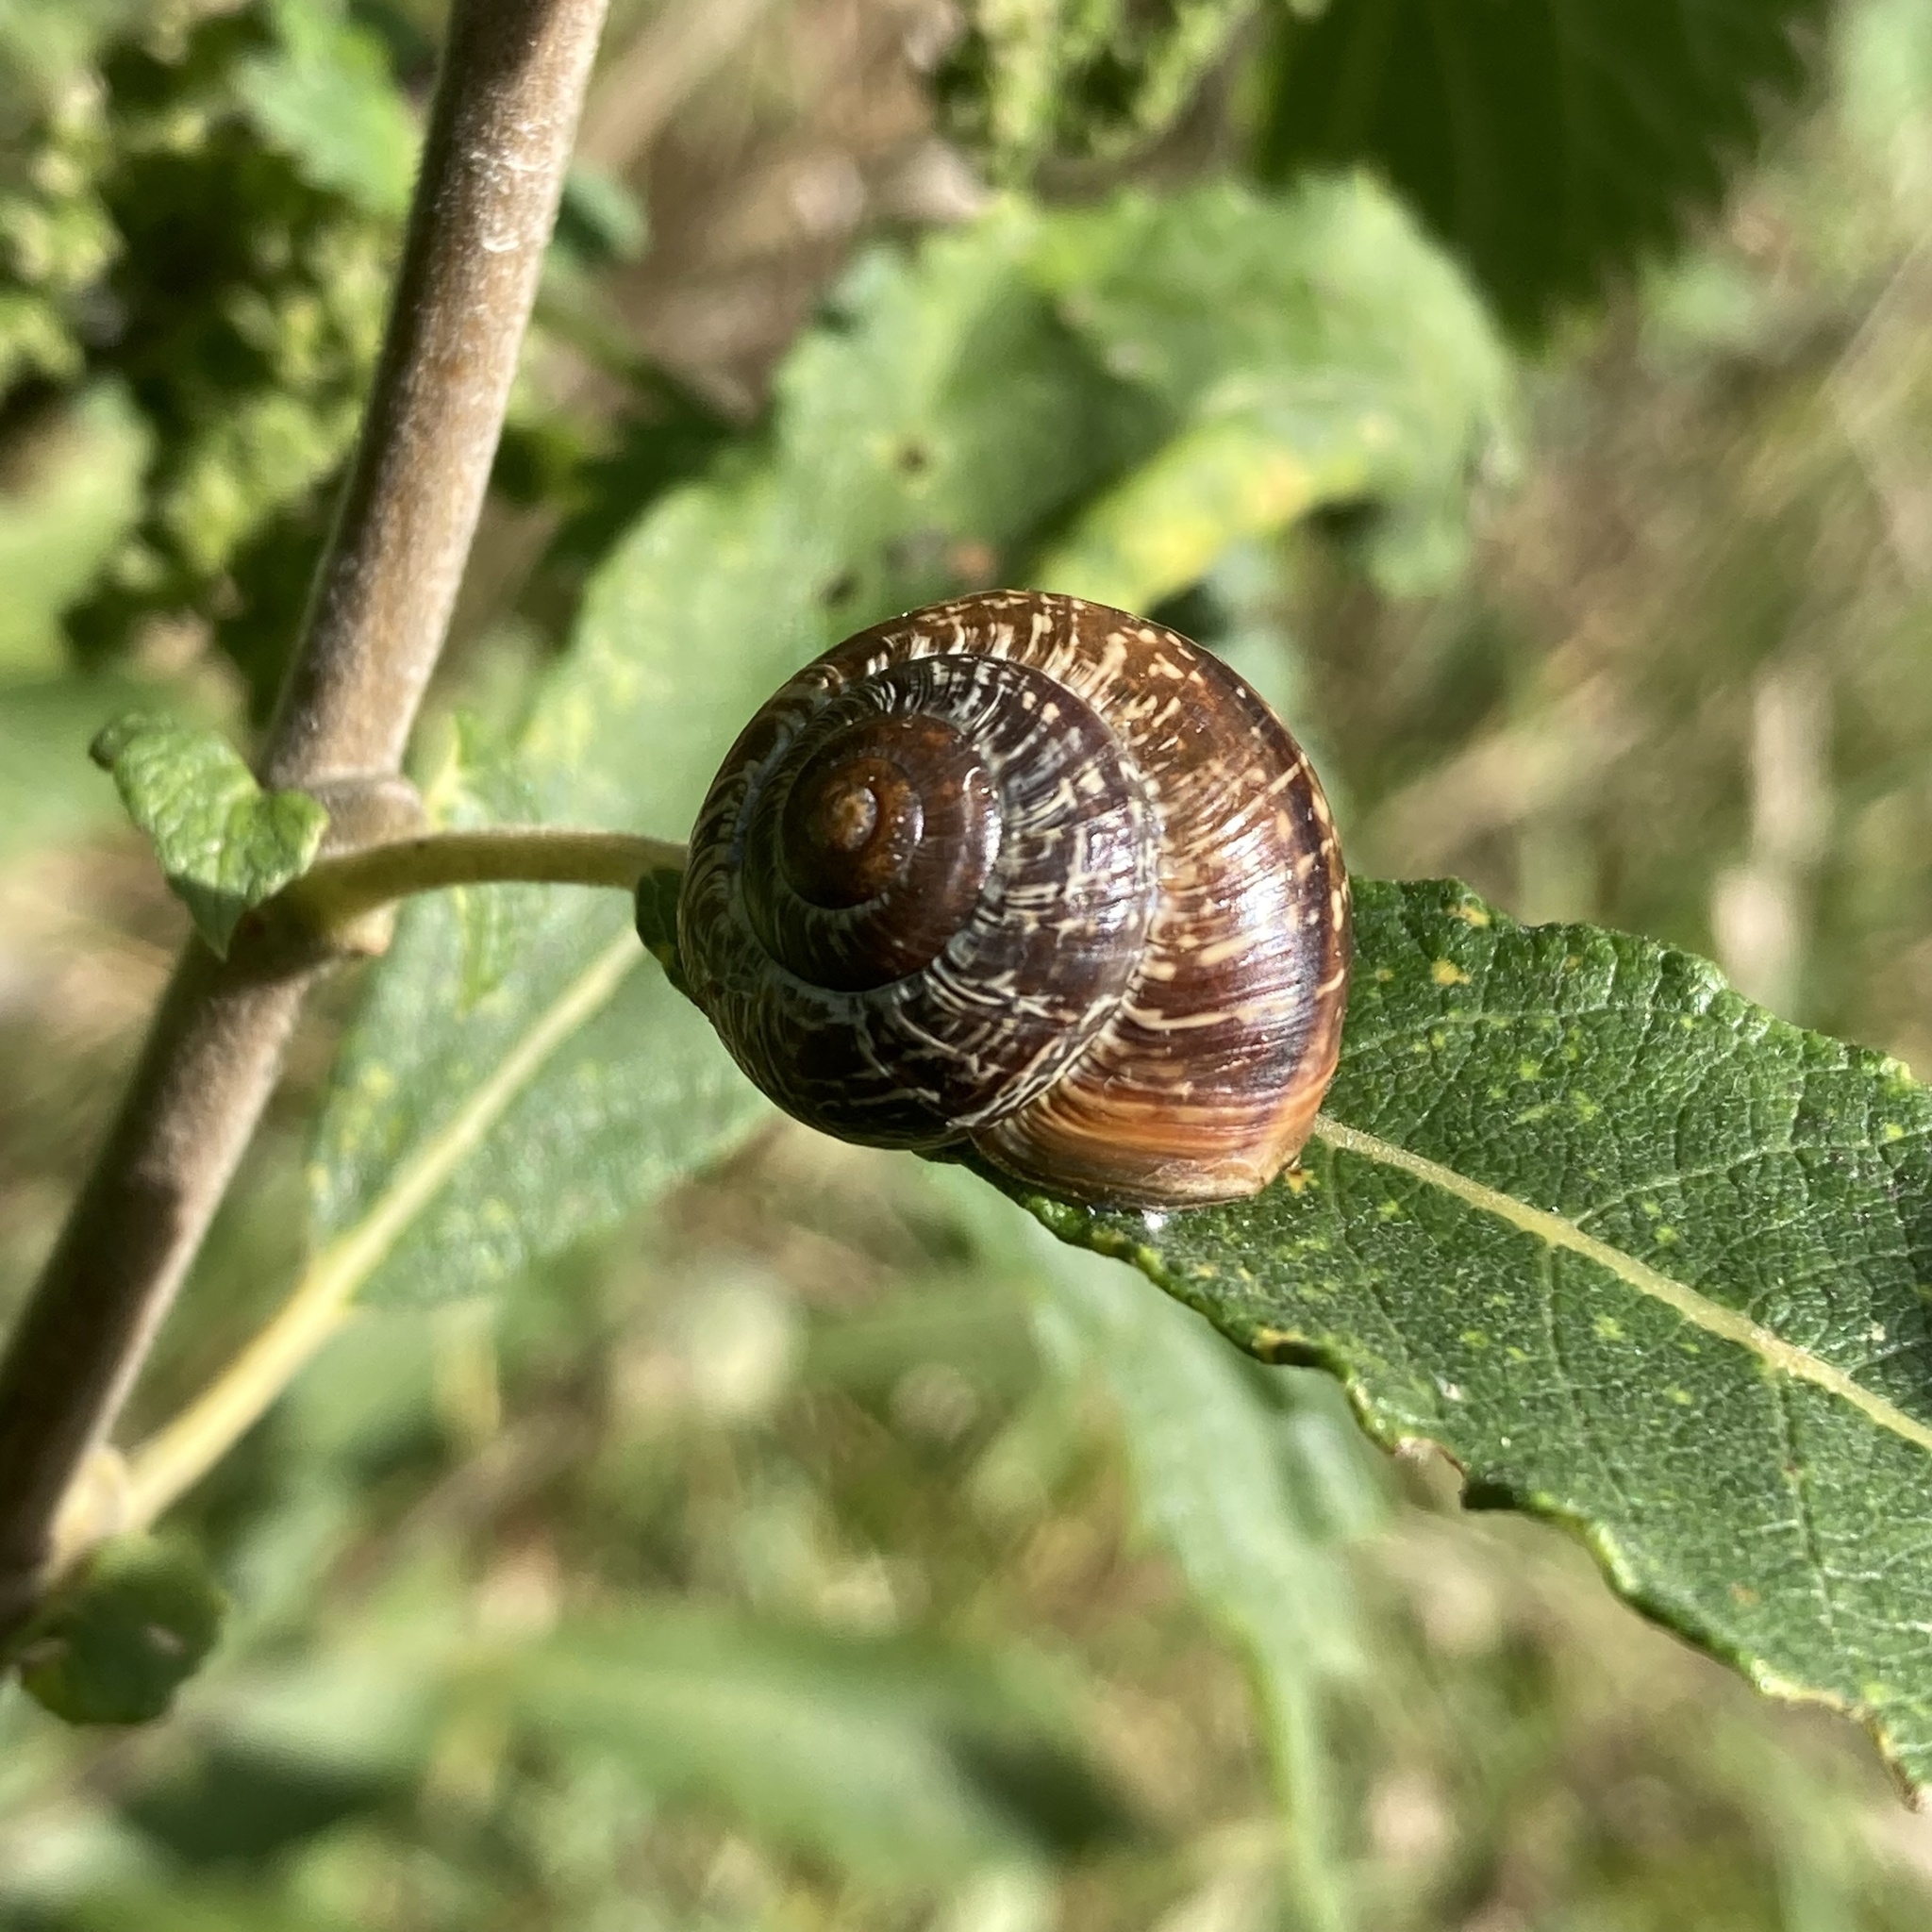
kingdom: Animalia
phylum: Mollusca
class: Gastropoda
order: Stylommatophora
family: Helicidae
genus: Arianta
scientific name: Arianta arbustorum
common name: Copse snail
